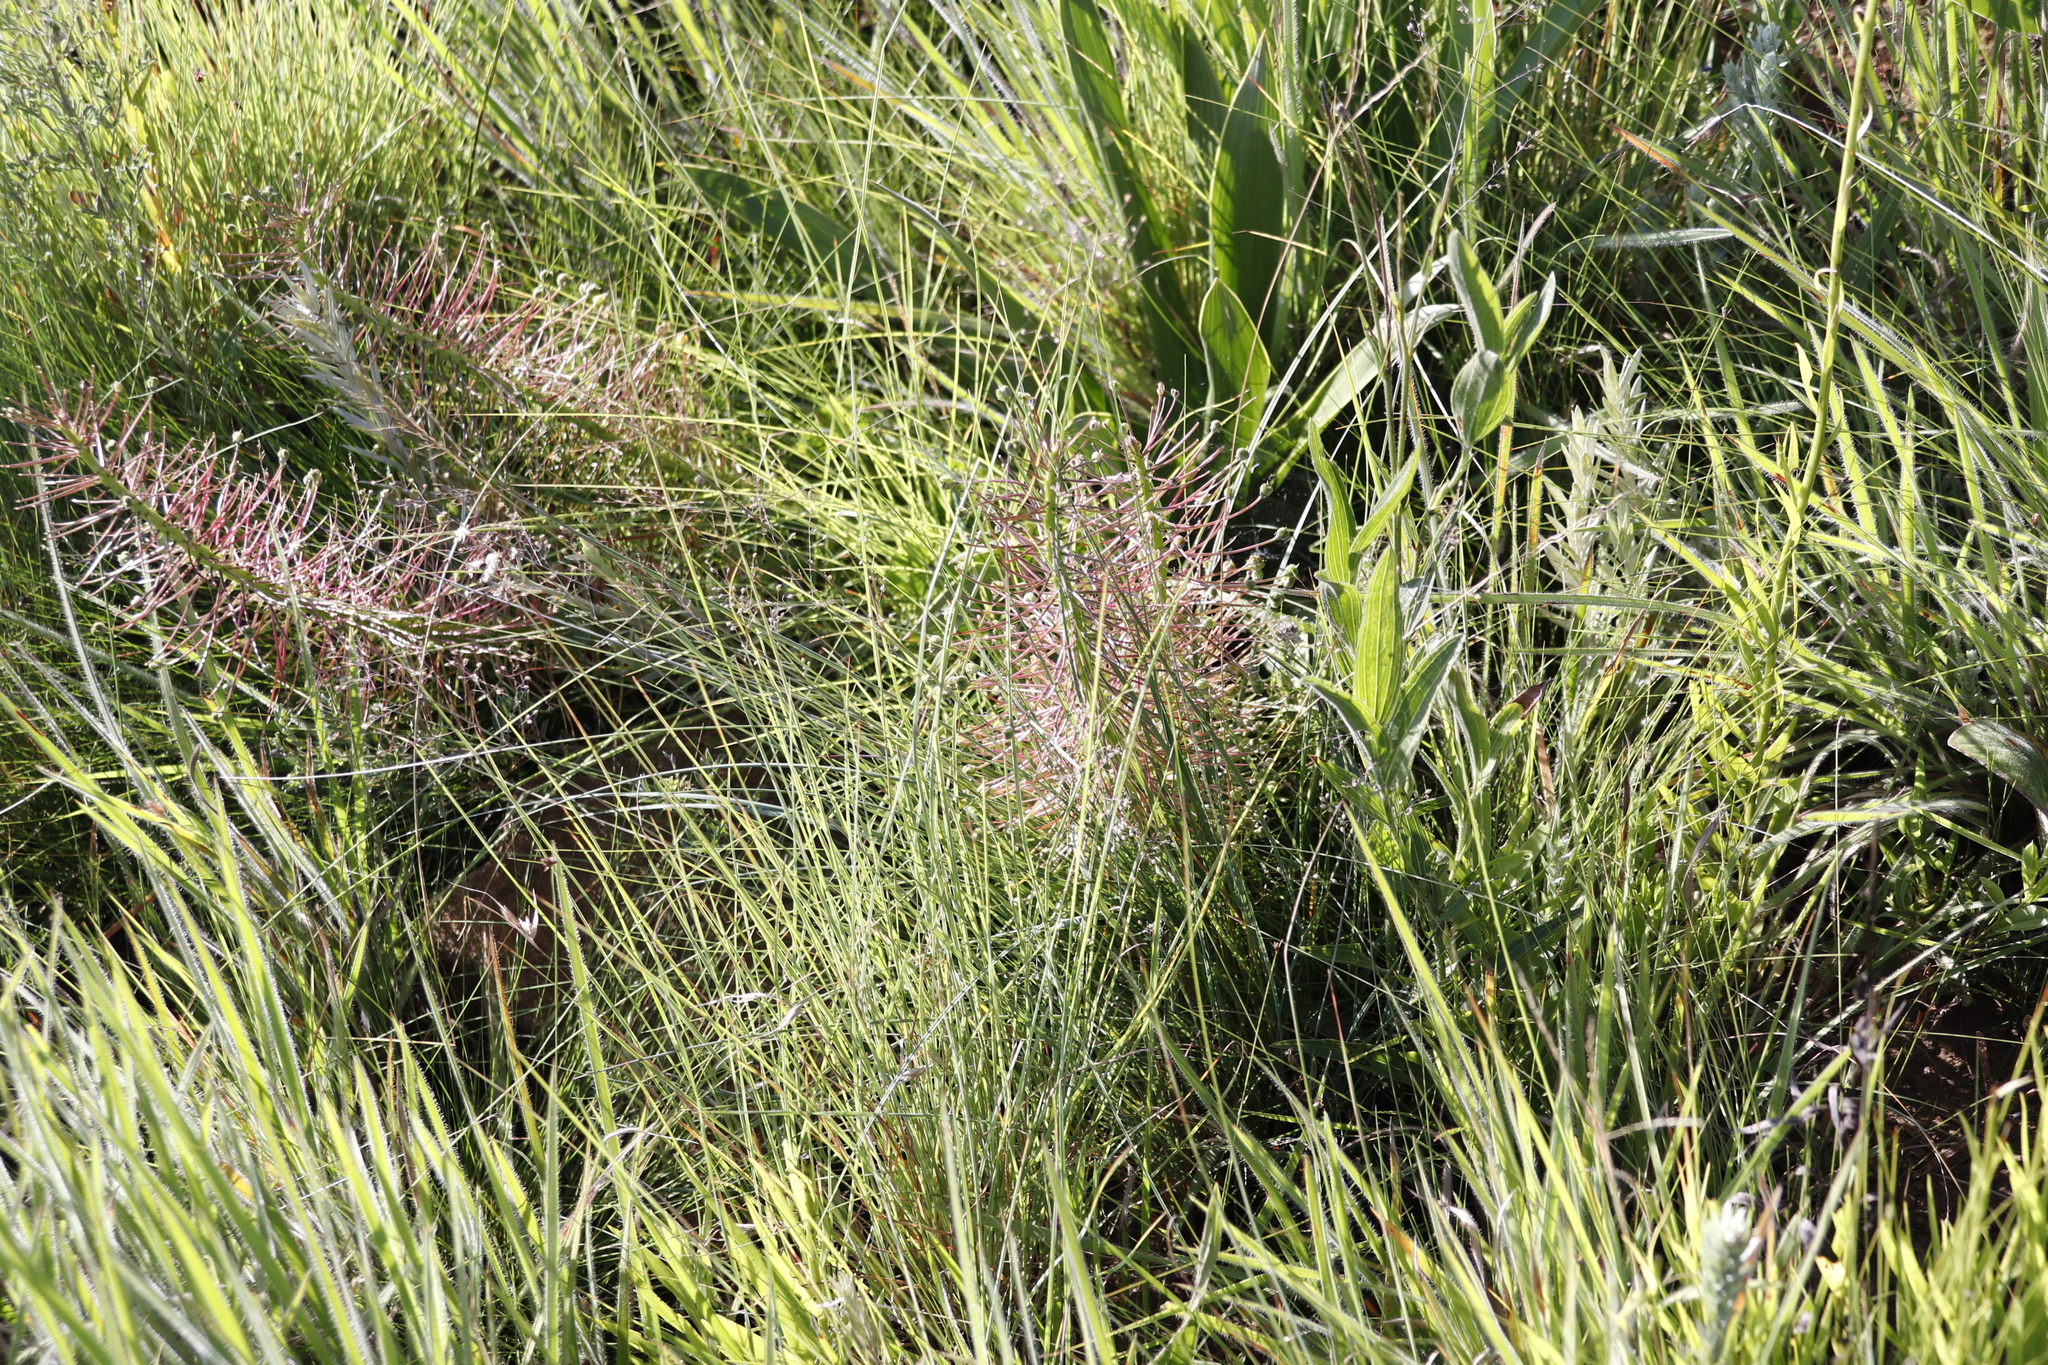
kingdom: Plantae
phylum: Tracheophyta
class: Liliopsida
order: Asparagales
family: Asparagaceae
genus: Schizocarphus
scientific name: Schizocarphus nervosus
